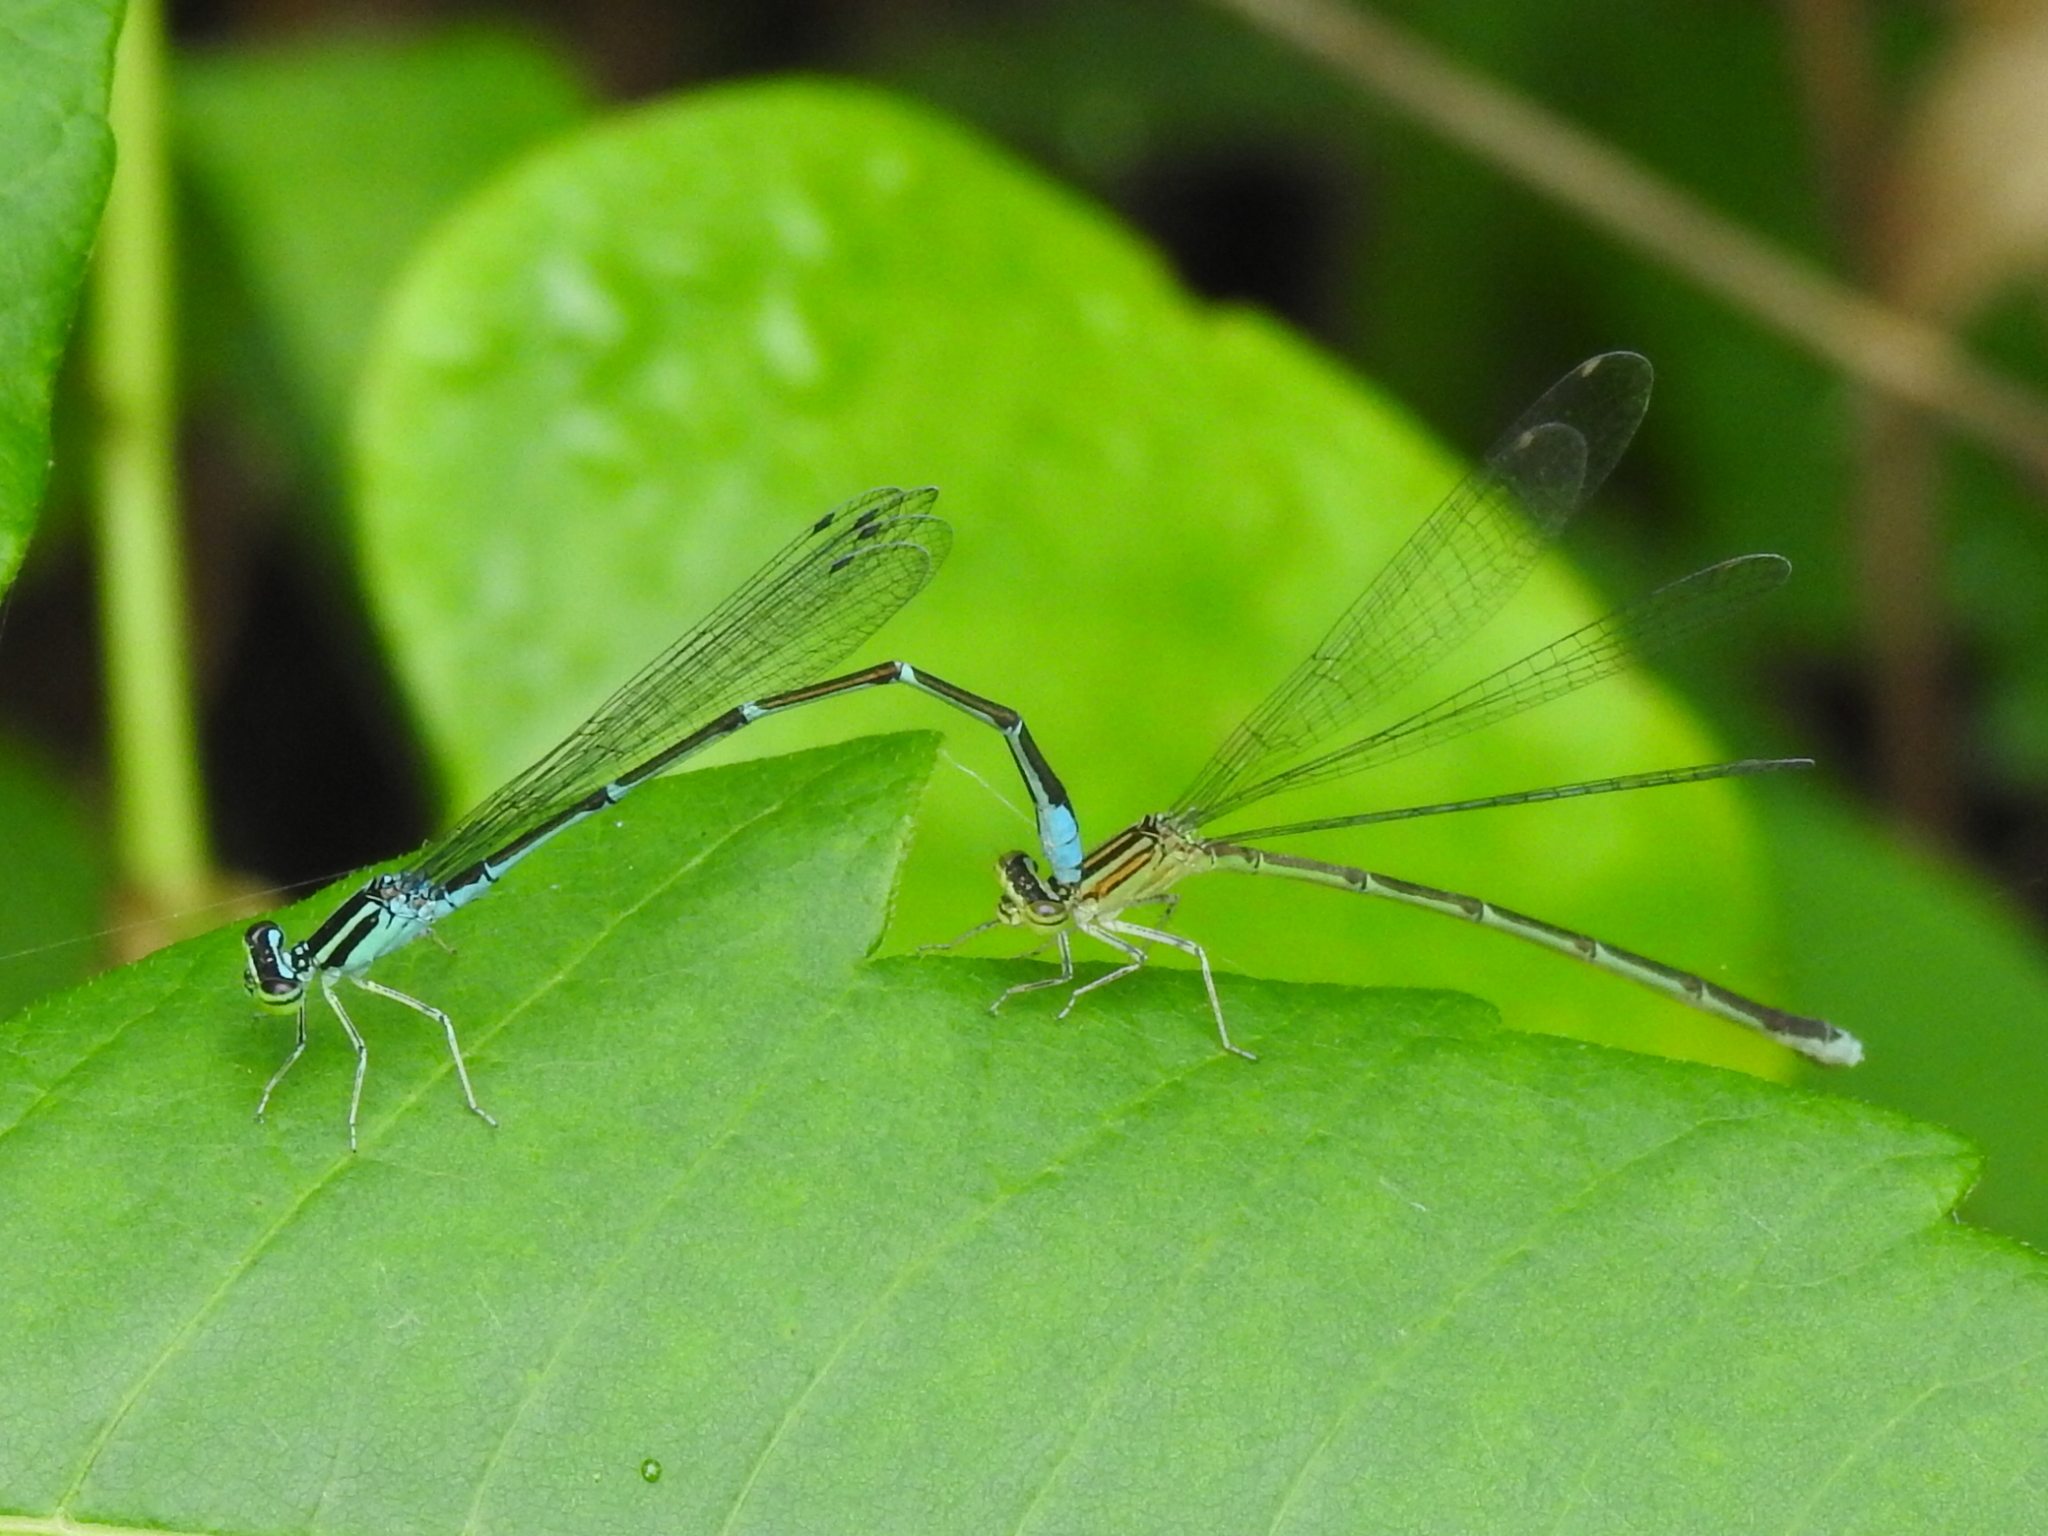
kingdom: Animalia
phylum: Arthropoda
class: Insecta
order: Odonata
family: Coenagrionidae
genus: Enallagma
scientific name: Enallagma exsulans
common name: Stream bluet
